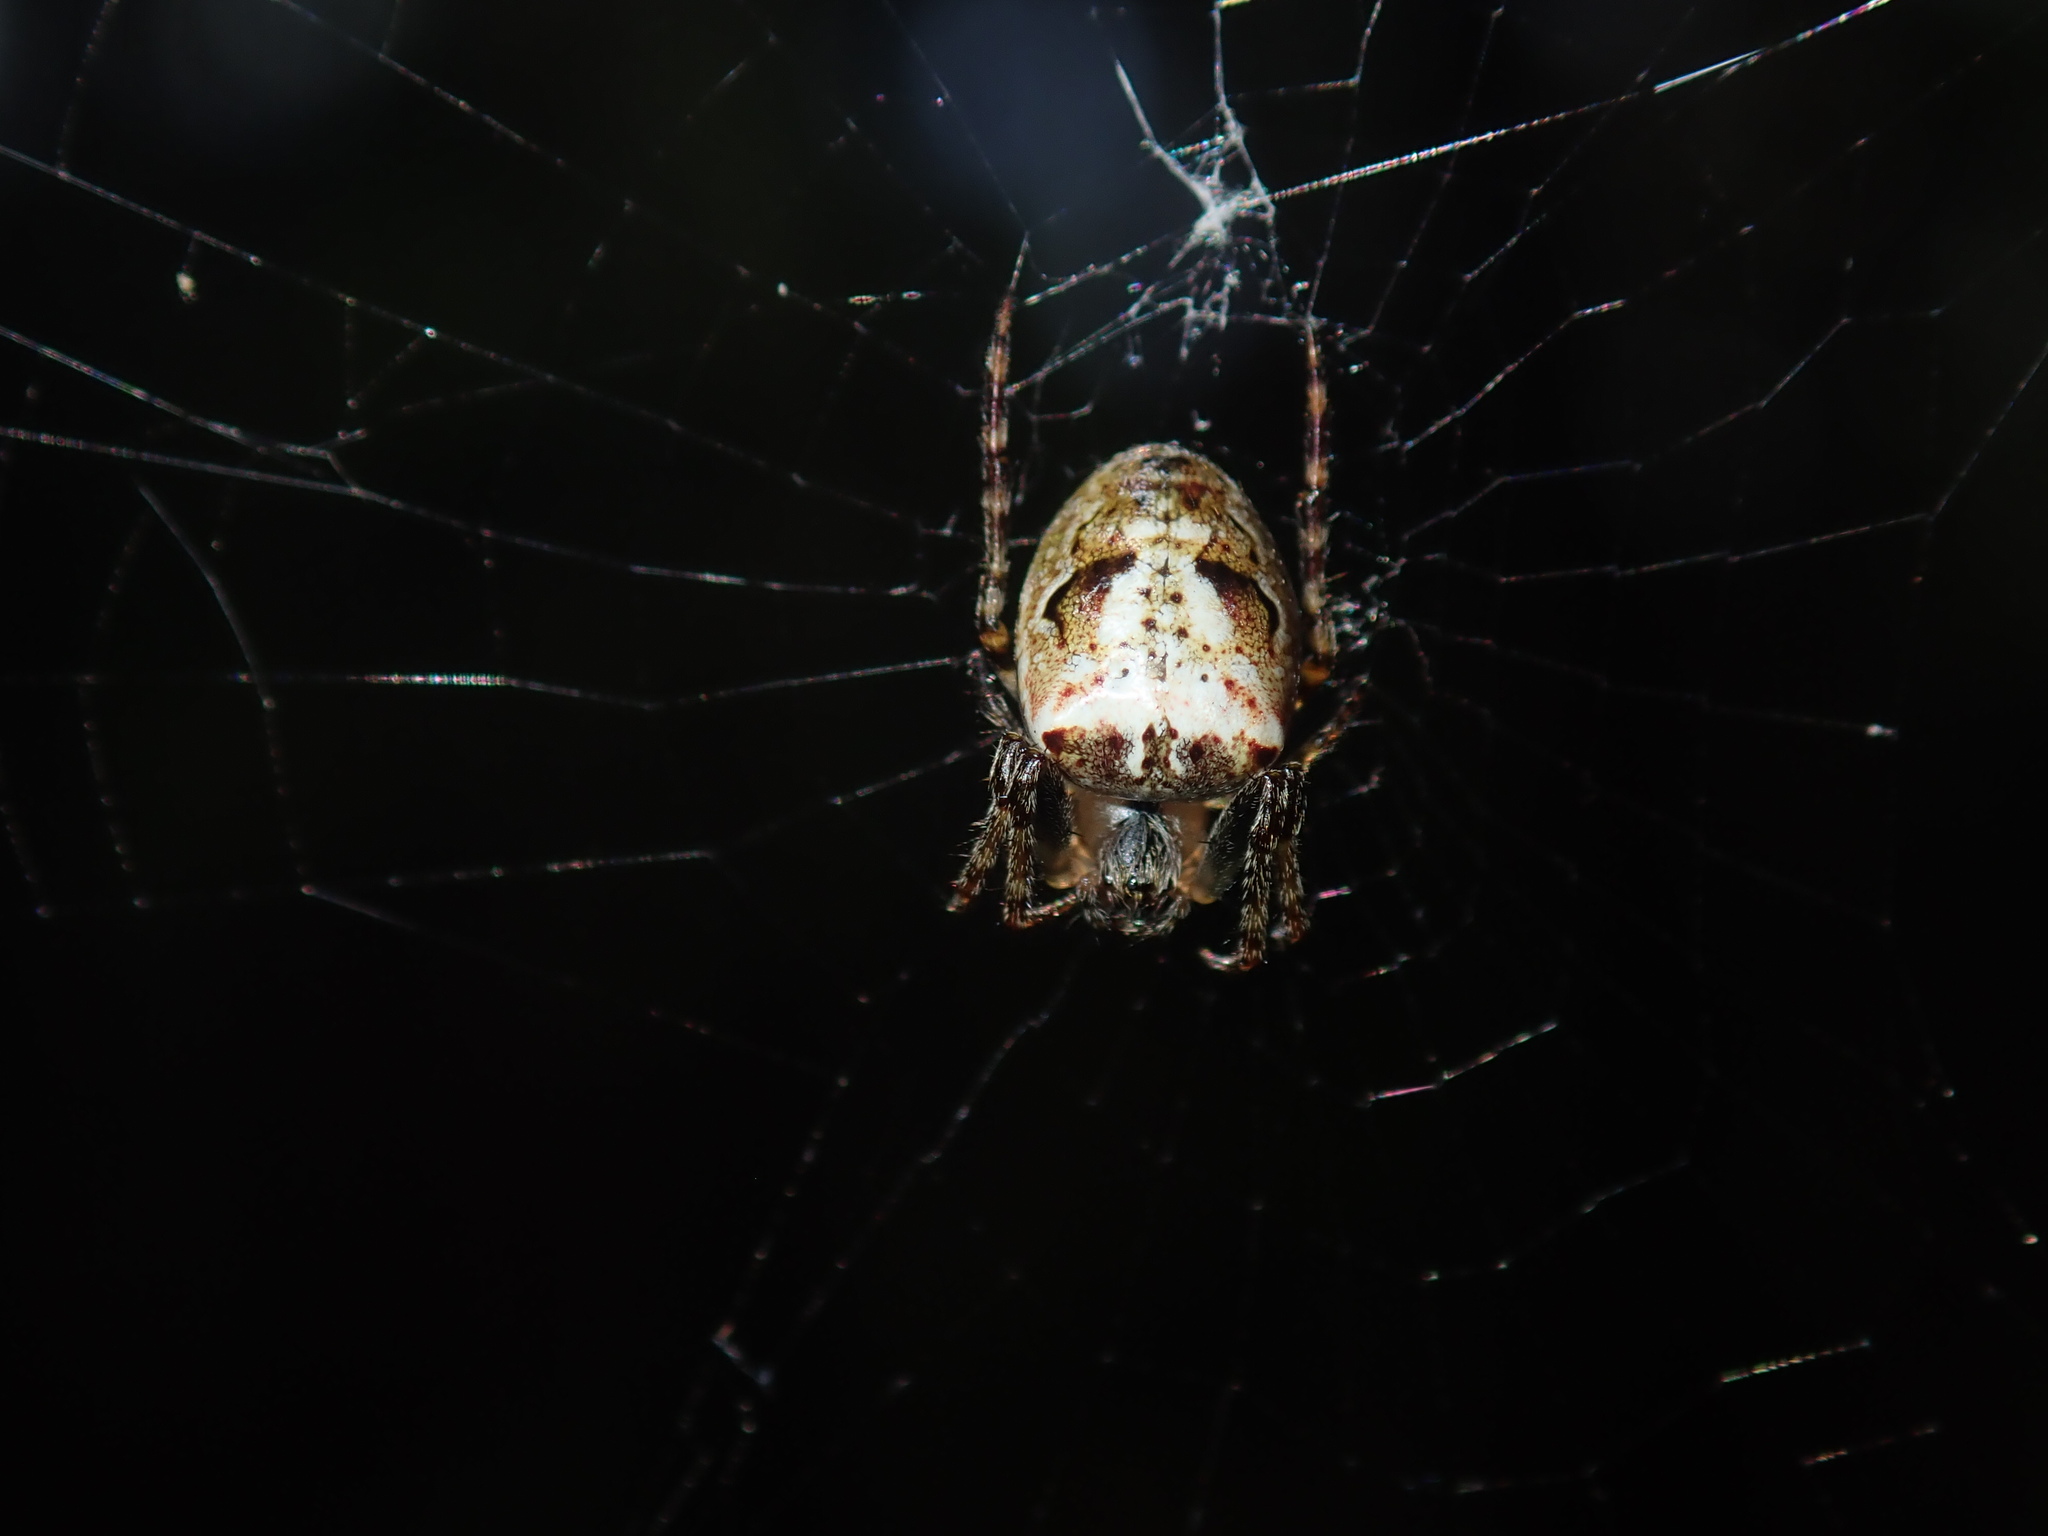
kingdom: Animalia
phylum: Arthropoda
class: Arachnida
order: Araneae
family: Araneidae
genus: Plebs
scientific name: Plebs eburnus
